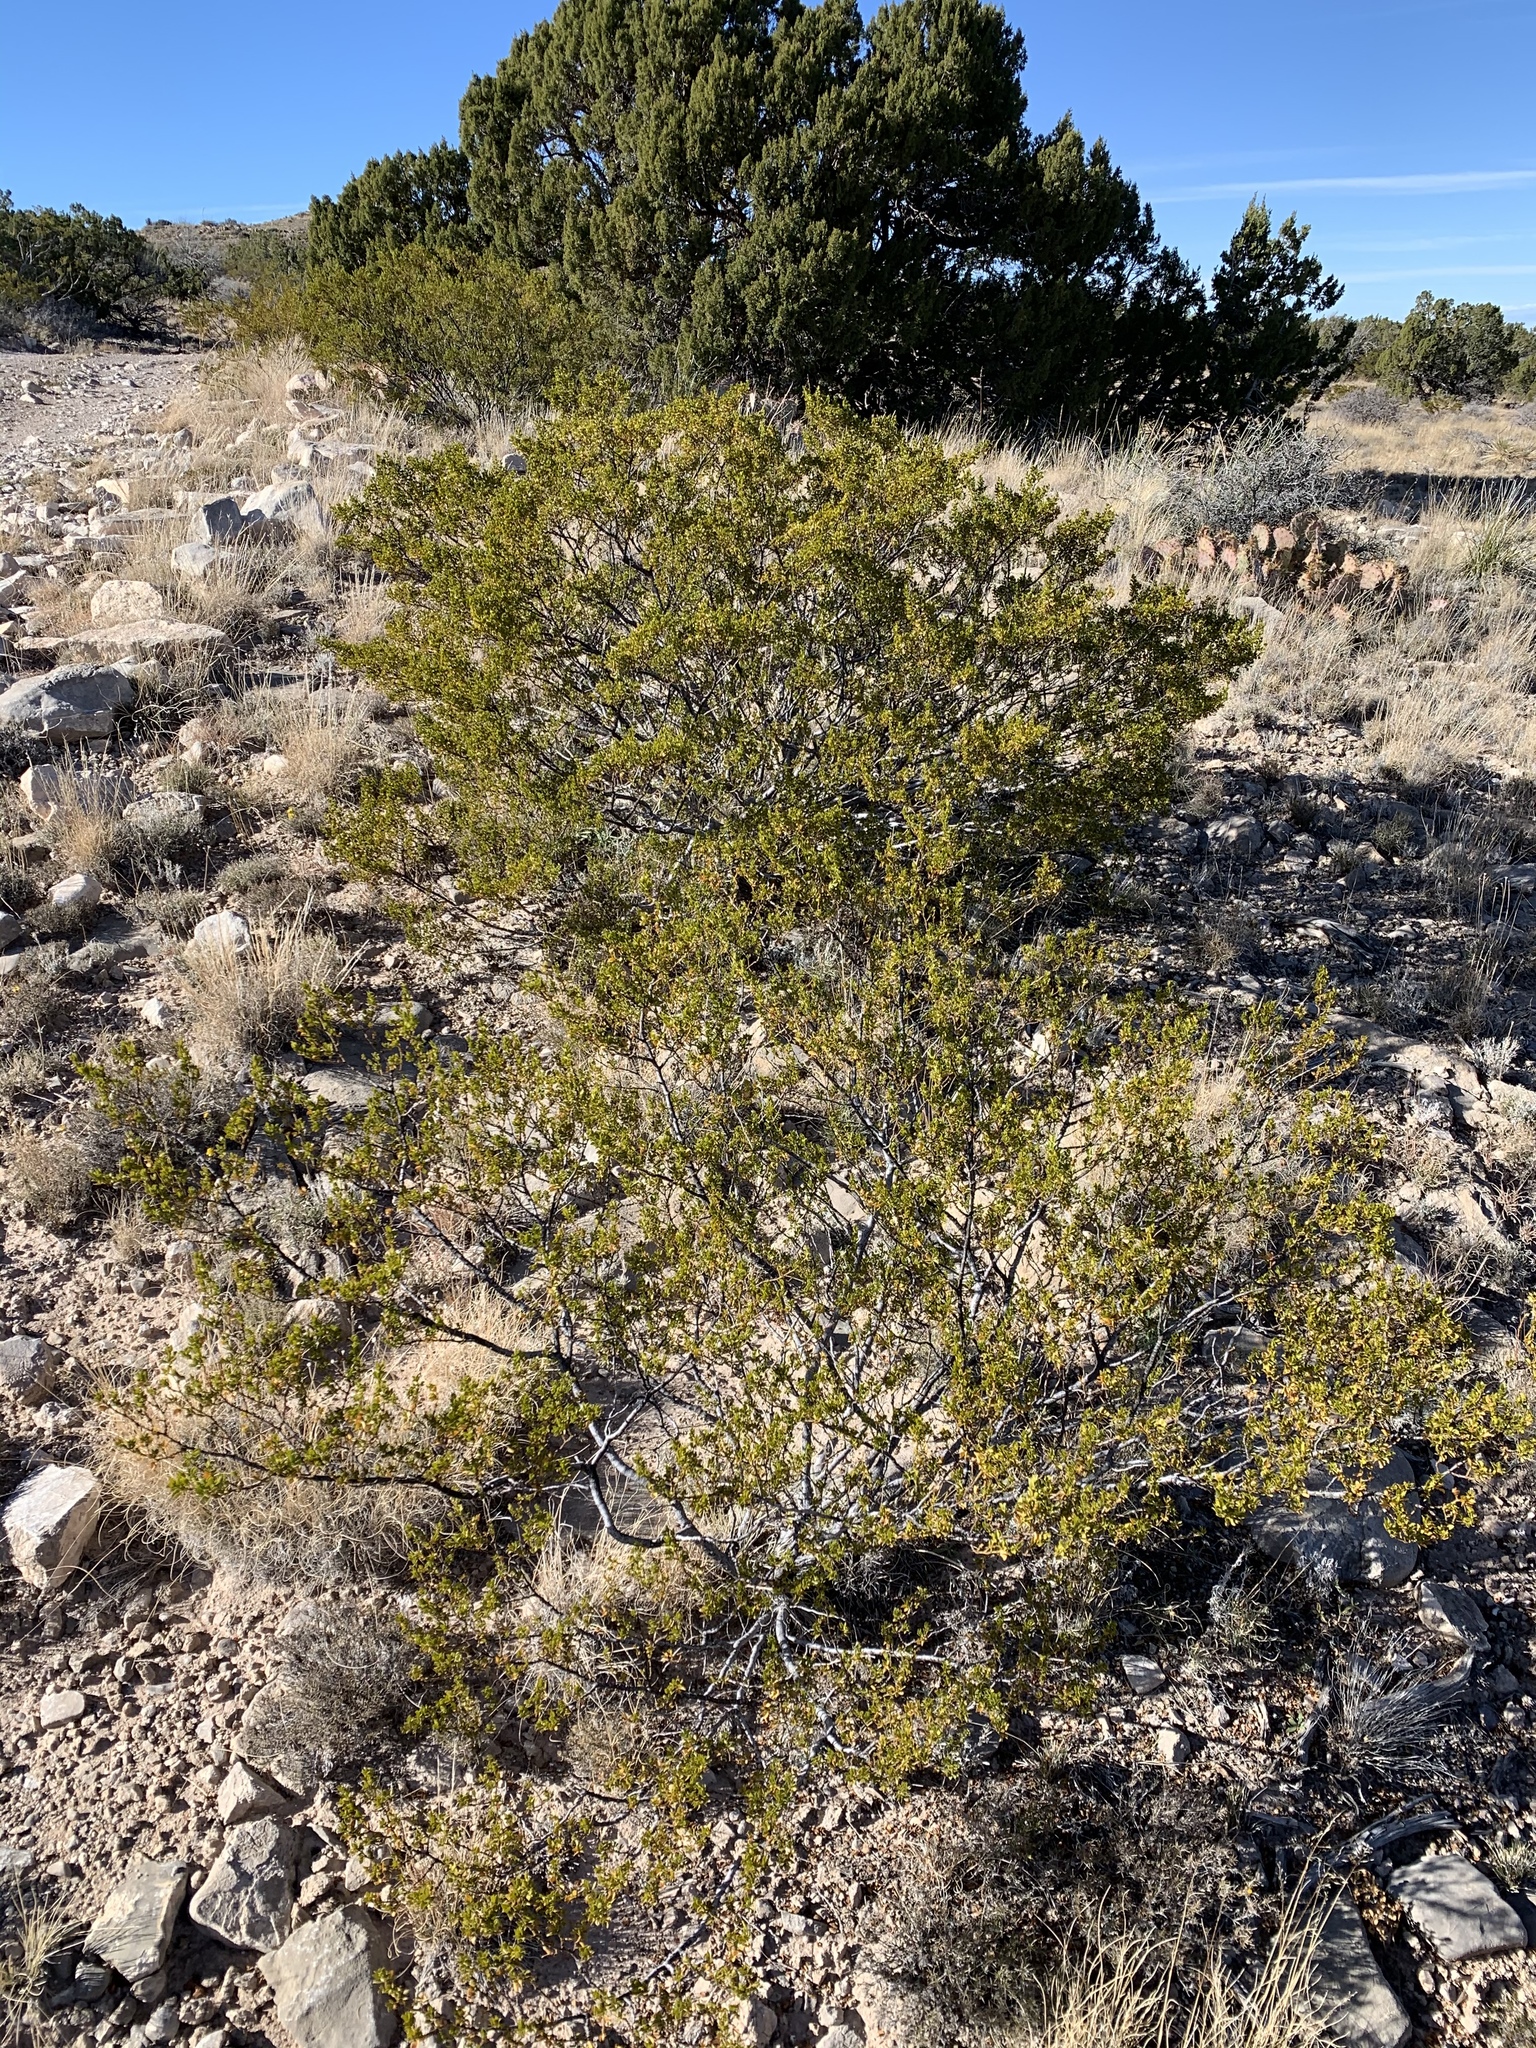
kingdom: Plantae
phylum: Tracheophyta
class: Magnoliopsida
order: Zygophyllales
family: Zygophyllaceae
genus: Larrea
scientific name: Larrea tridentata
